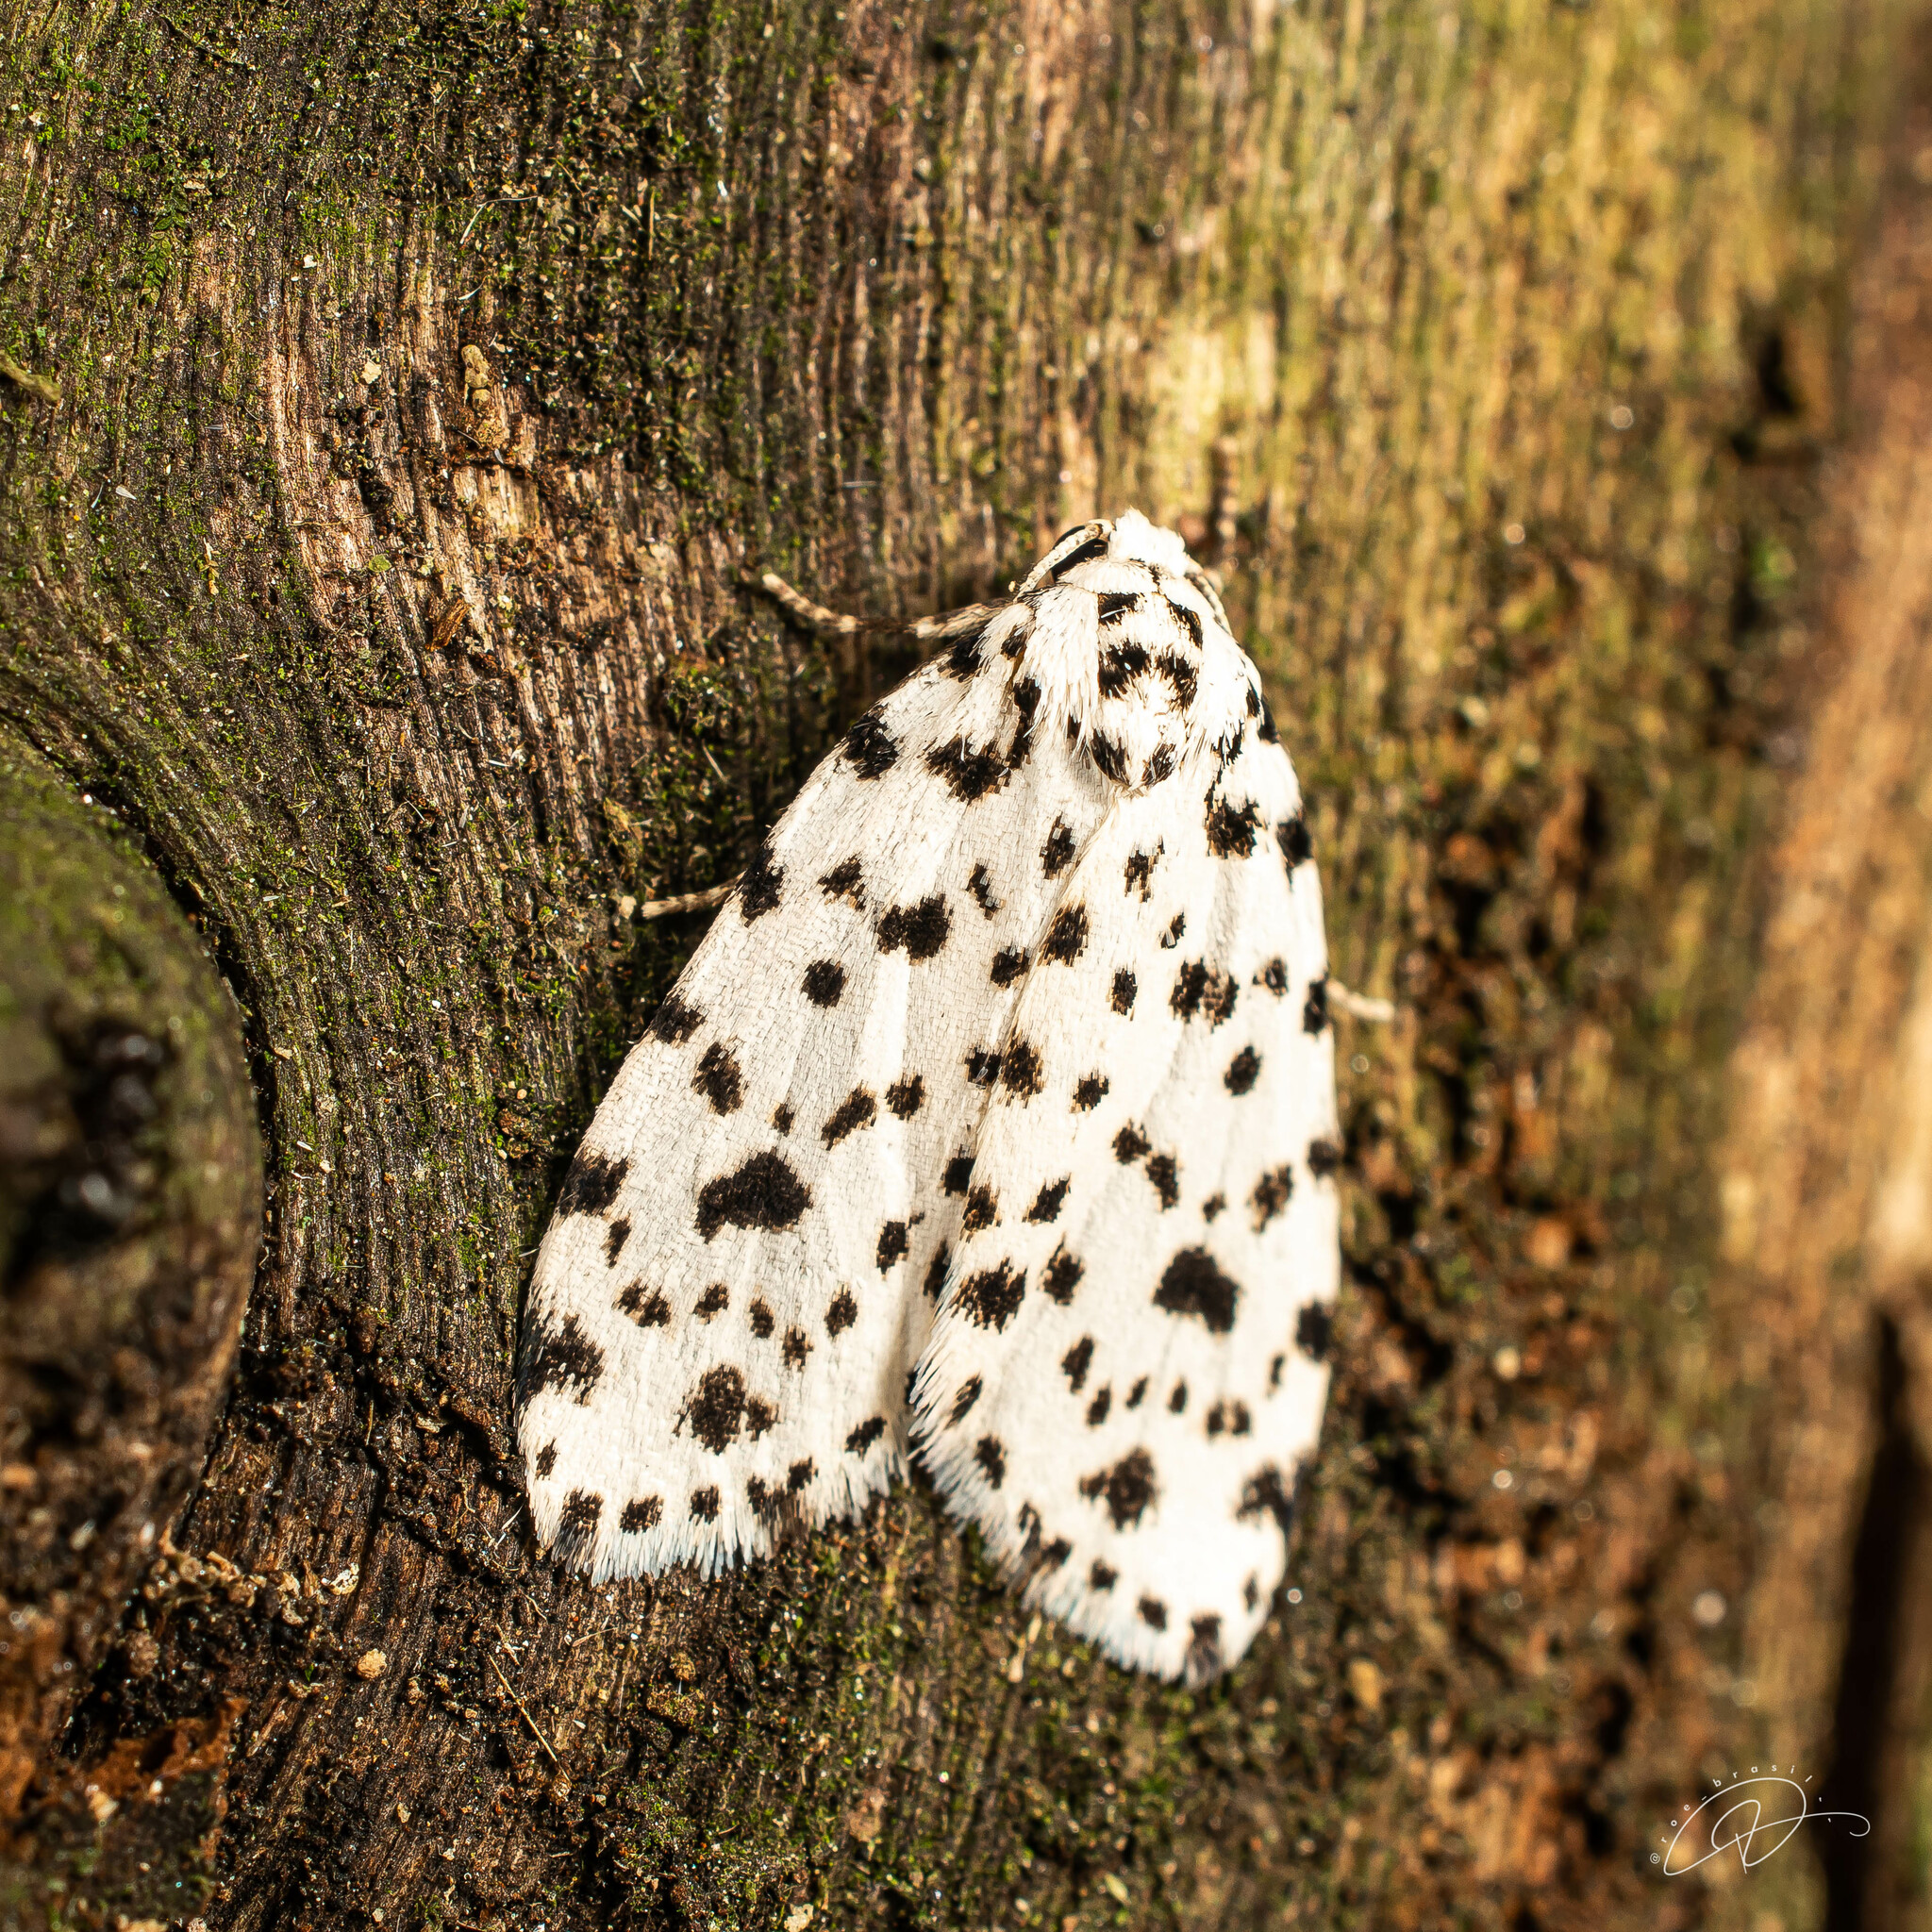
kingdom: Animalia
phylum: Arthropoda
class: Insecta
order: Lepidoptera
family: Erebidae
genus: Clemensia
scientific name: Clemensia panthera
